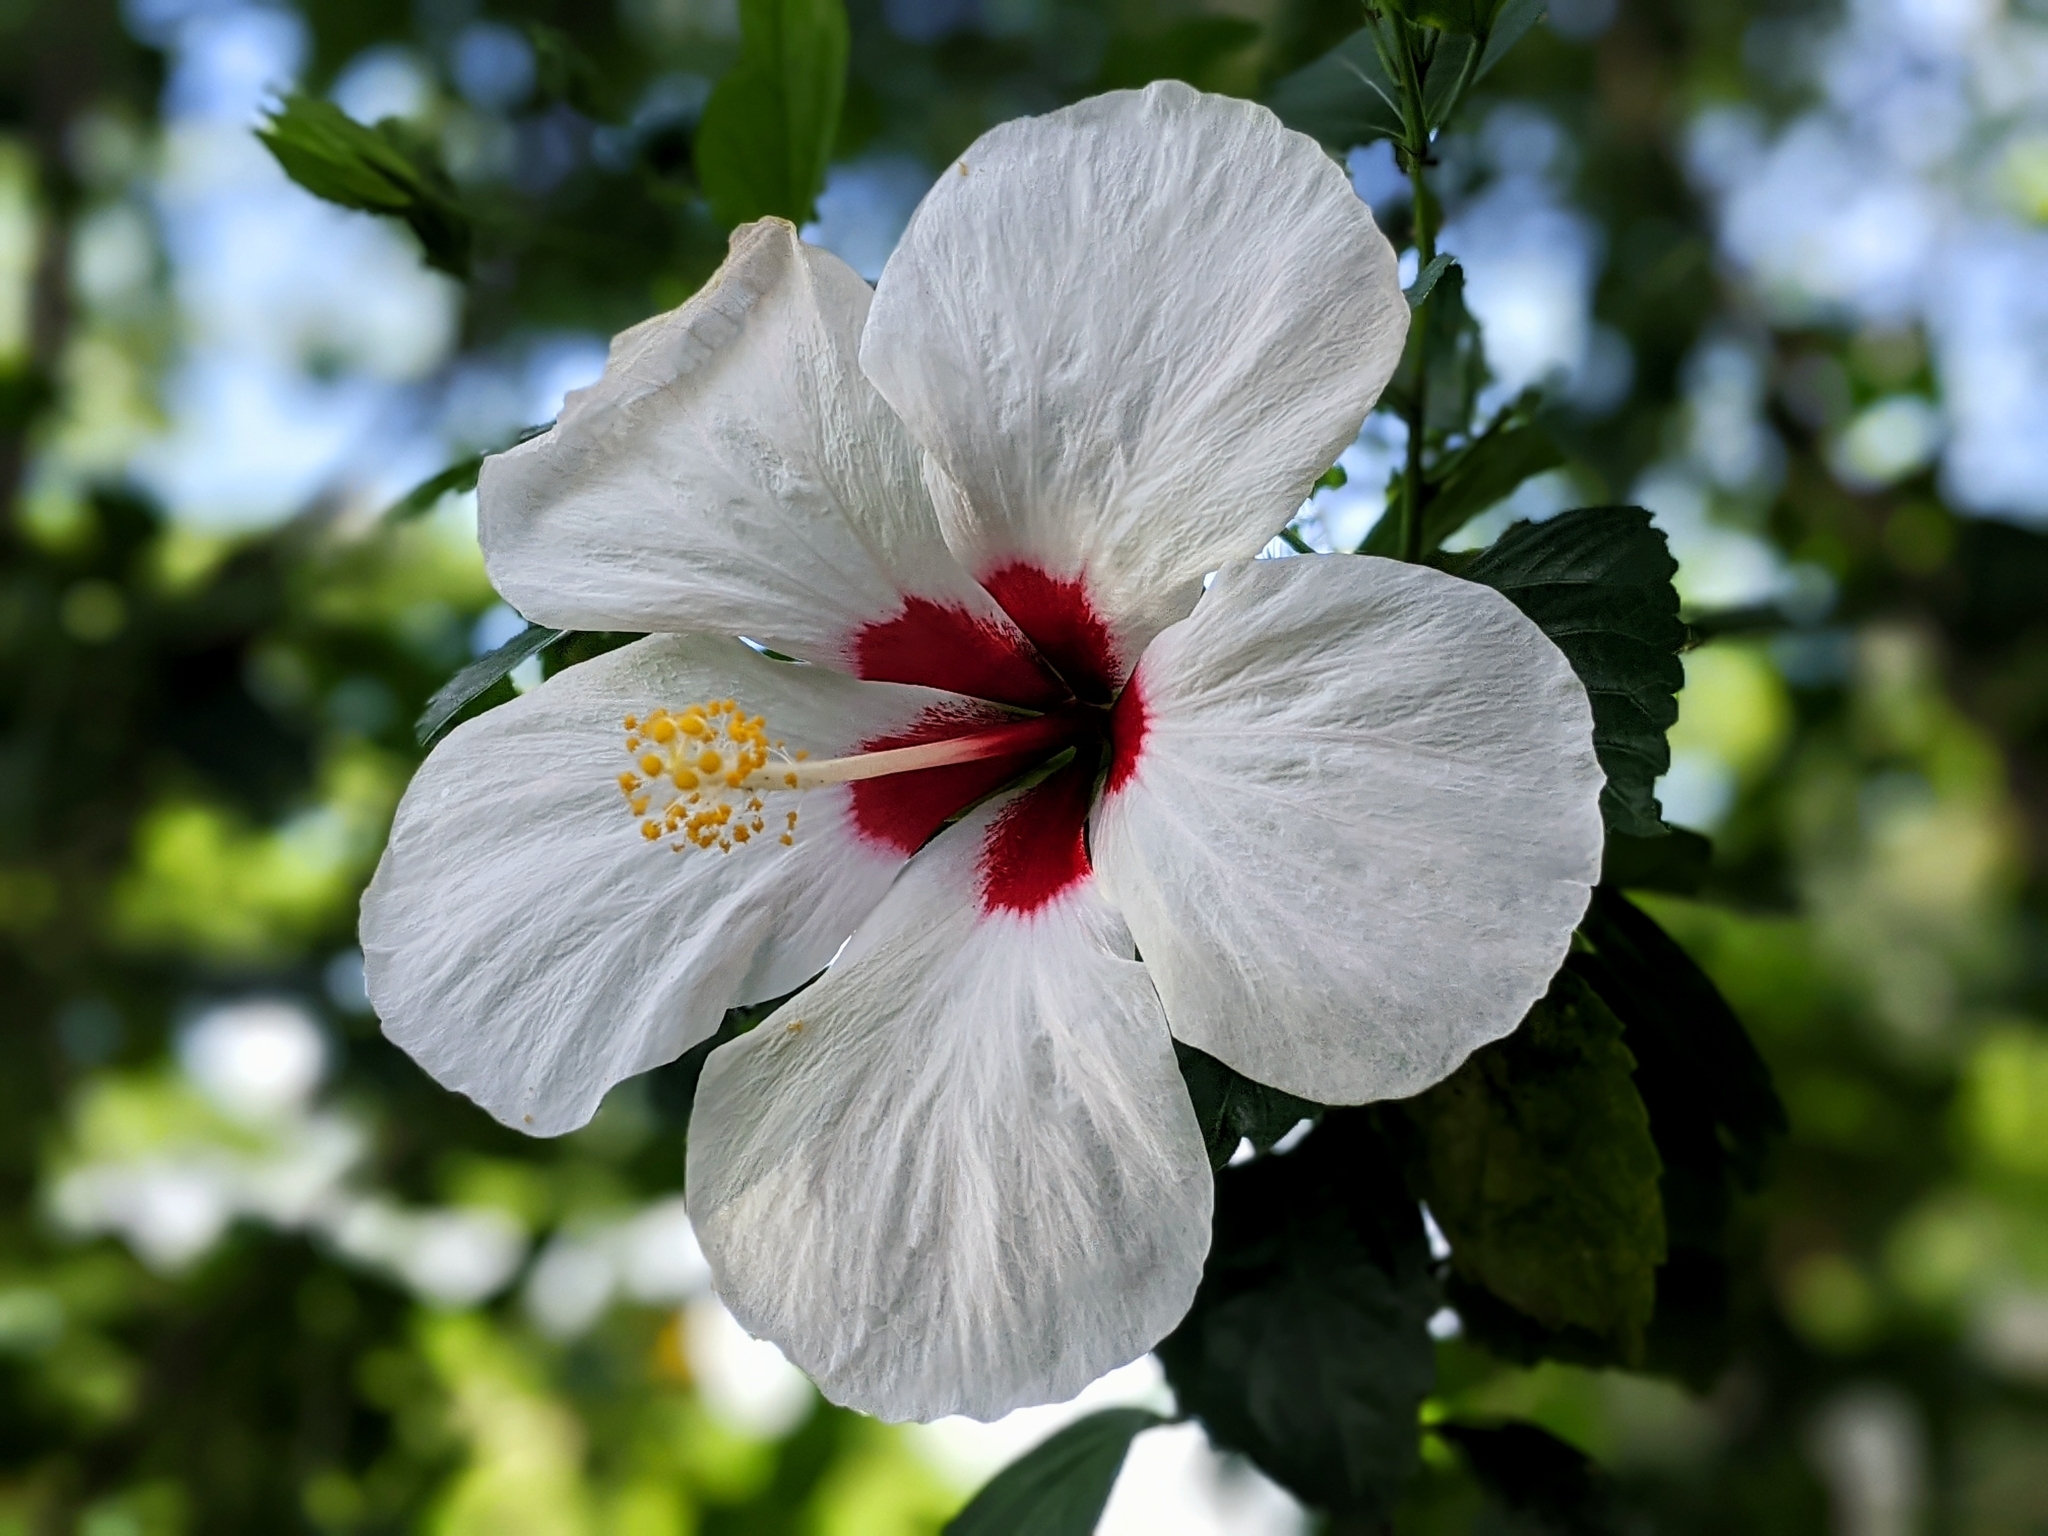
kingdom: Plantae
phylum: Tracheophyta
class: Magnoliopsida
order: Malvales
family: Malvaceae
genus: Hibiscus
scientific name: Hibiscus rosa-sinensis
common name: Hibiscus
